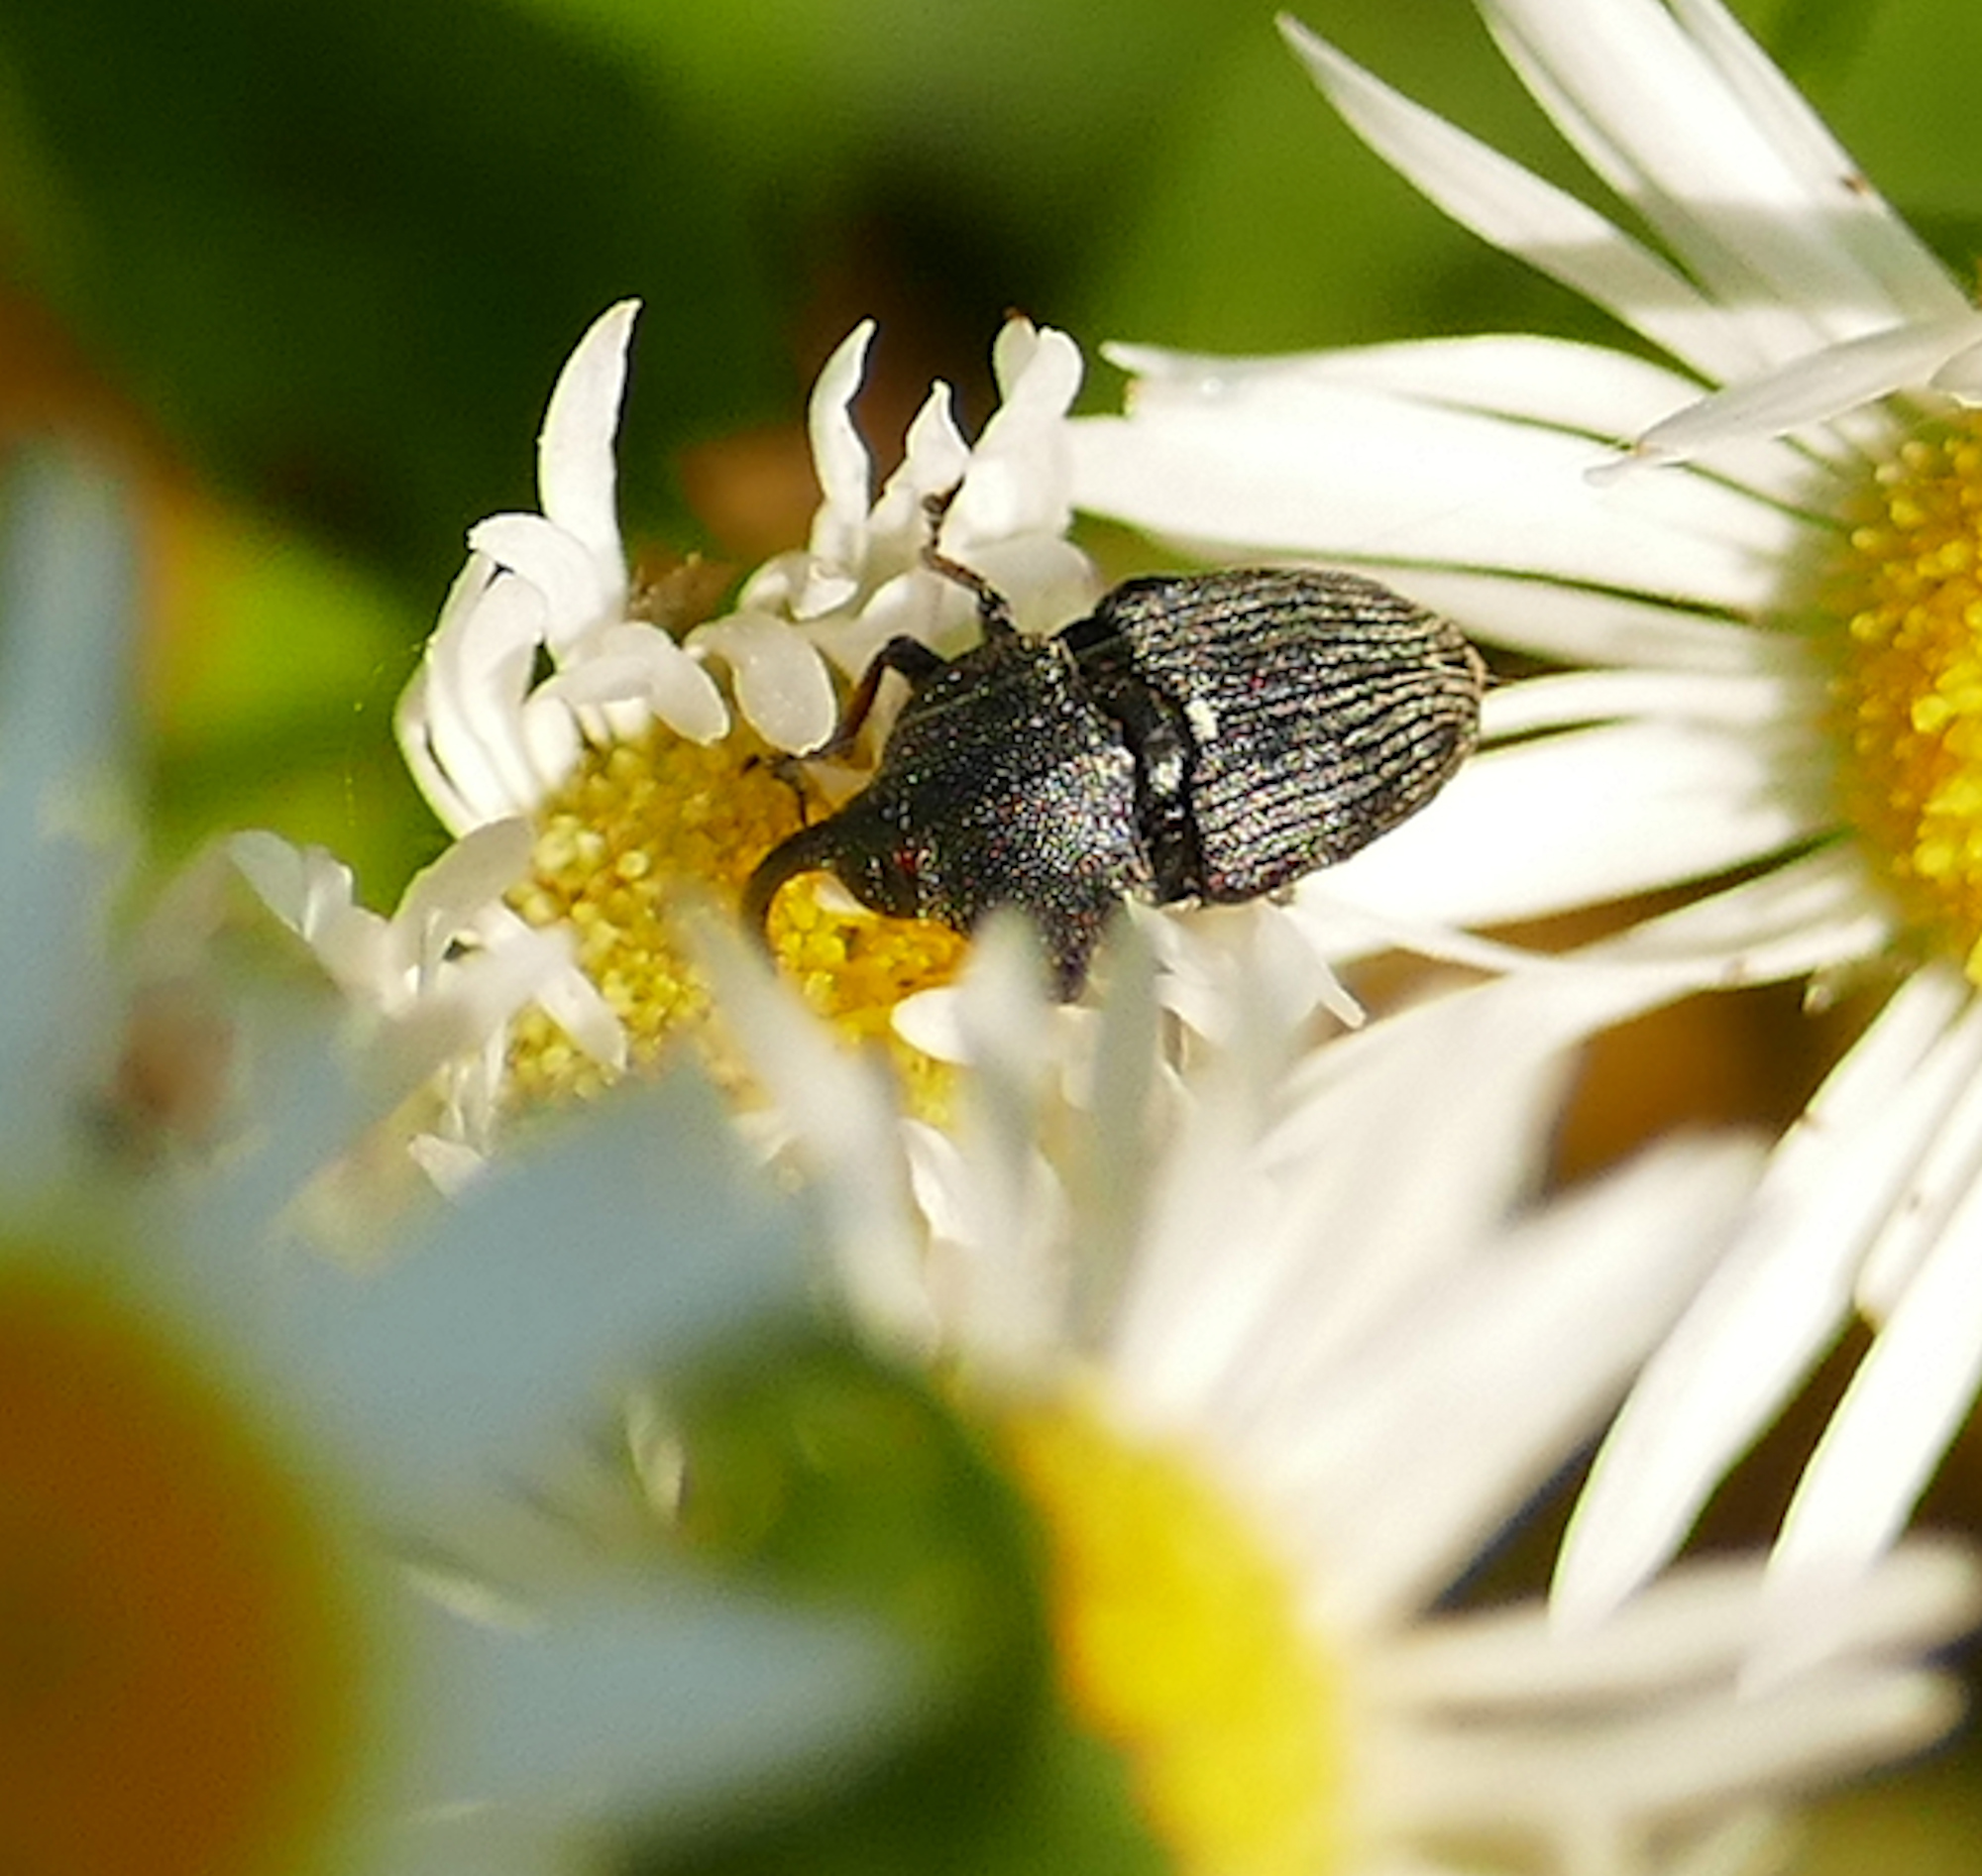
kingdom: Animalia
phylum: Arthropoda
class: Insecta
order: Coleoptera
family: Curculionidae
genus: Odontocorynus
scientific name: Odontocorynus salebrosus
